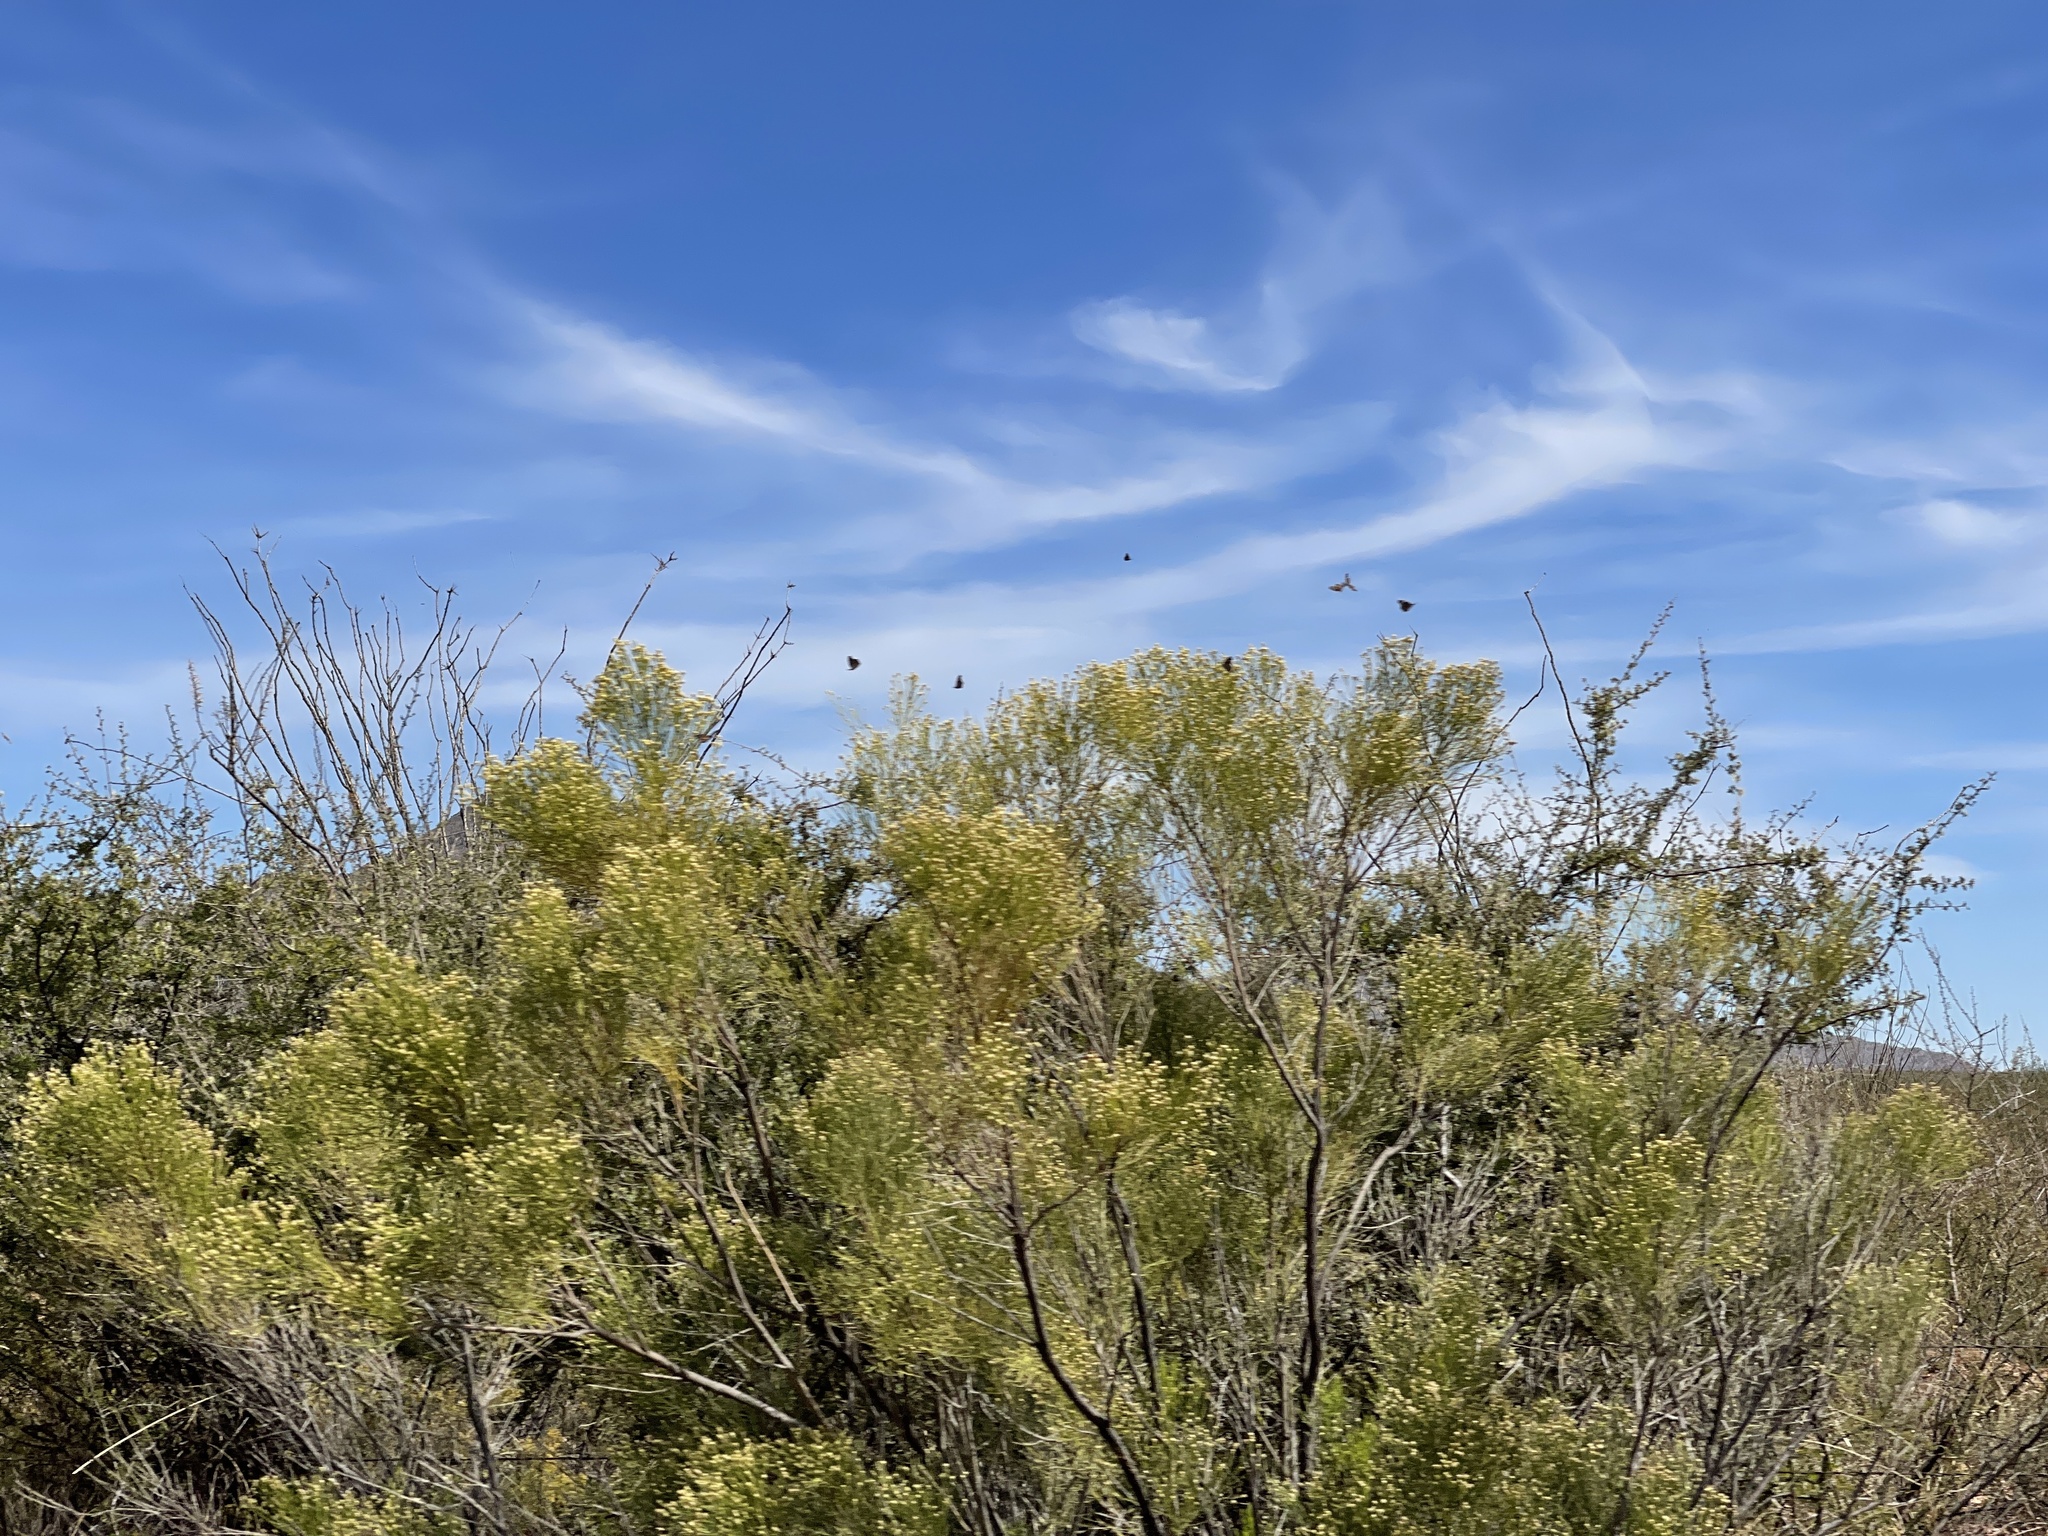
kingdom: Plantae
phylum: Tracheophyta
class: Magnoliopsida
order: Asterales
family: Asteraceae
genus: Baccharis
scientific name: Baccharis sarothroides
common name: Desert-broom
